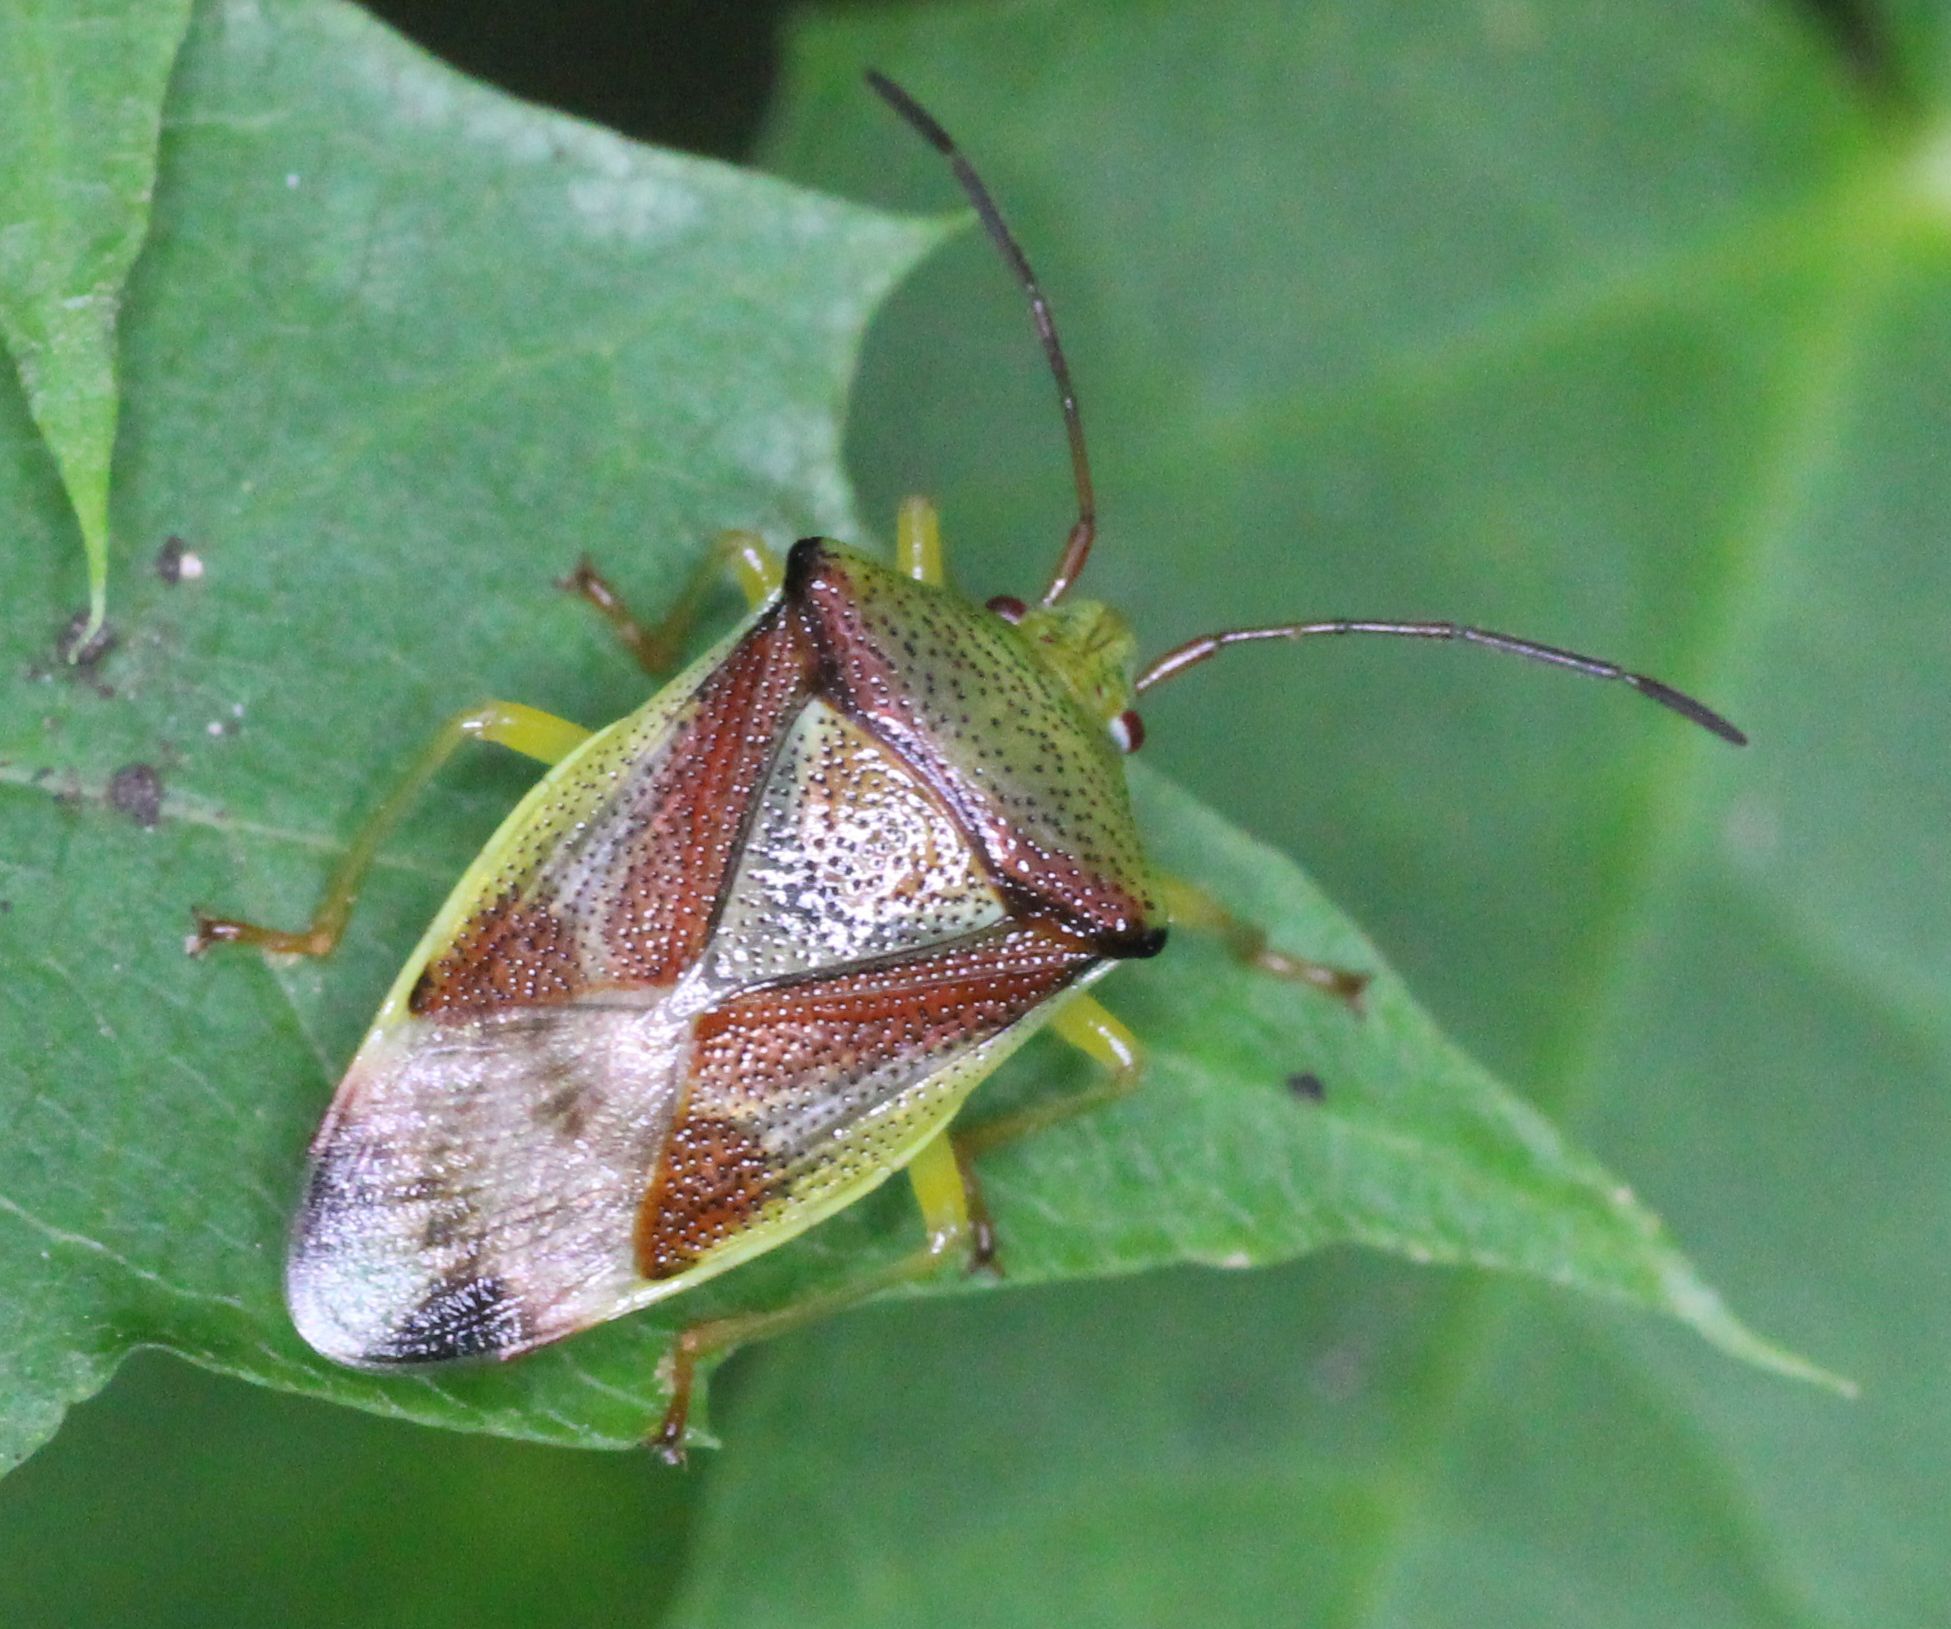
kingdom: Animalia
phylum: Arthropoda
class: Insecta
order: Hemiptera
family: Acanthosomatidae
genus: Elasmostethus
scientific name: Elasmostethus interstinctus
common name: Birch shieldbug
